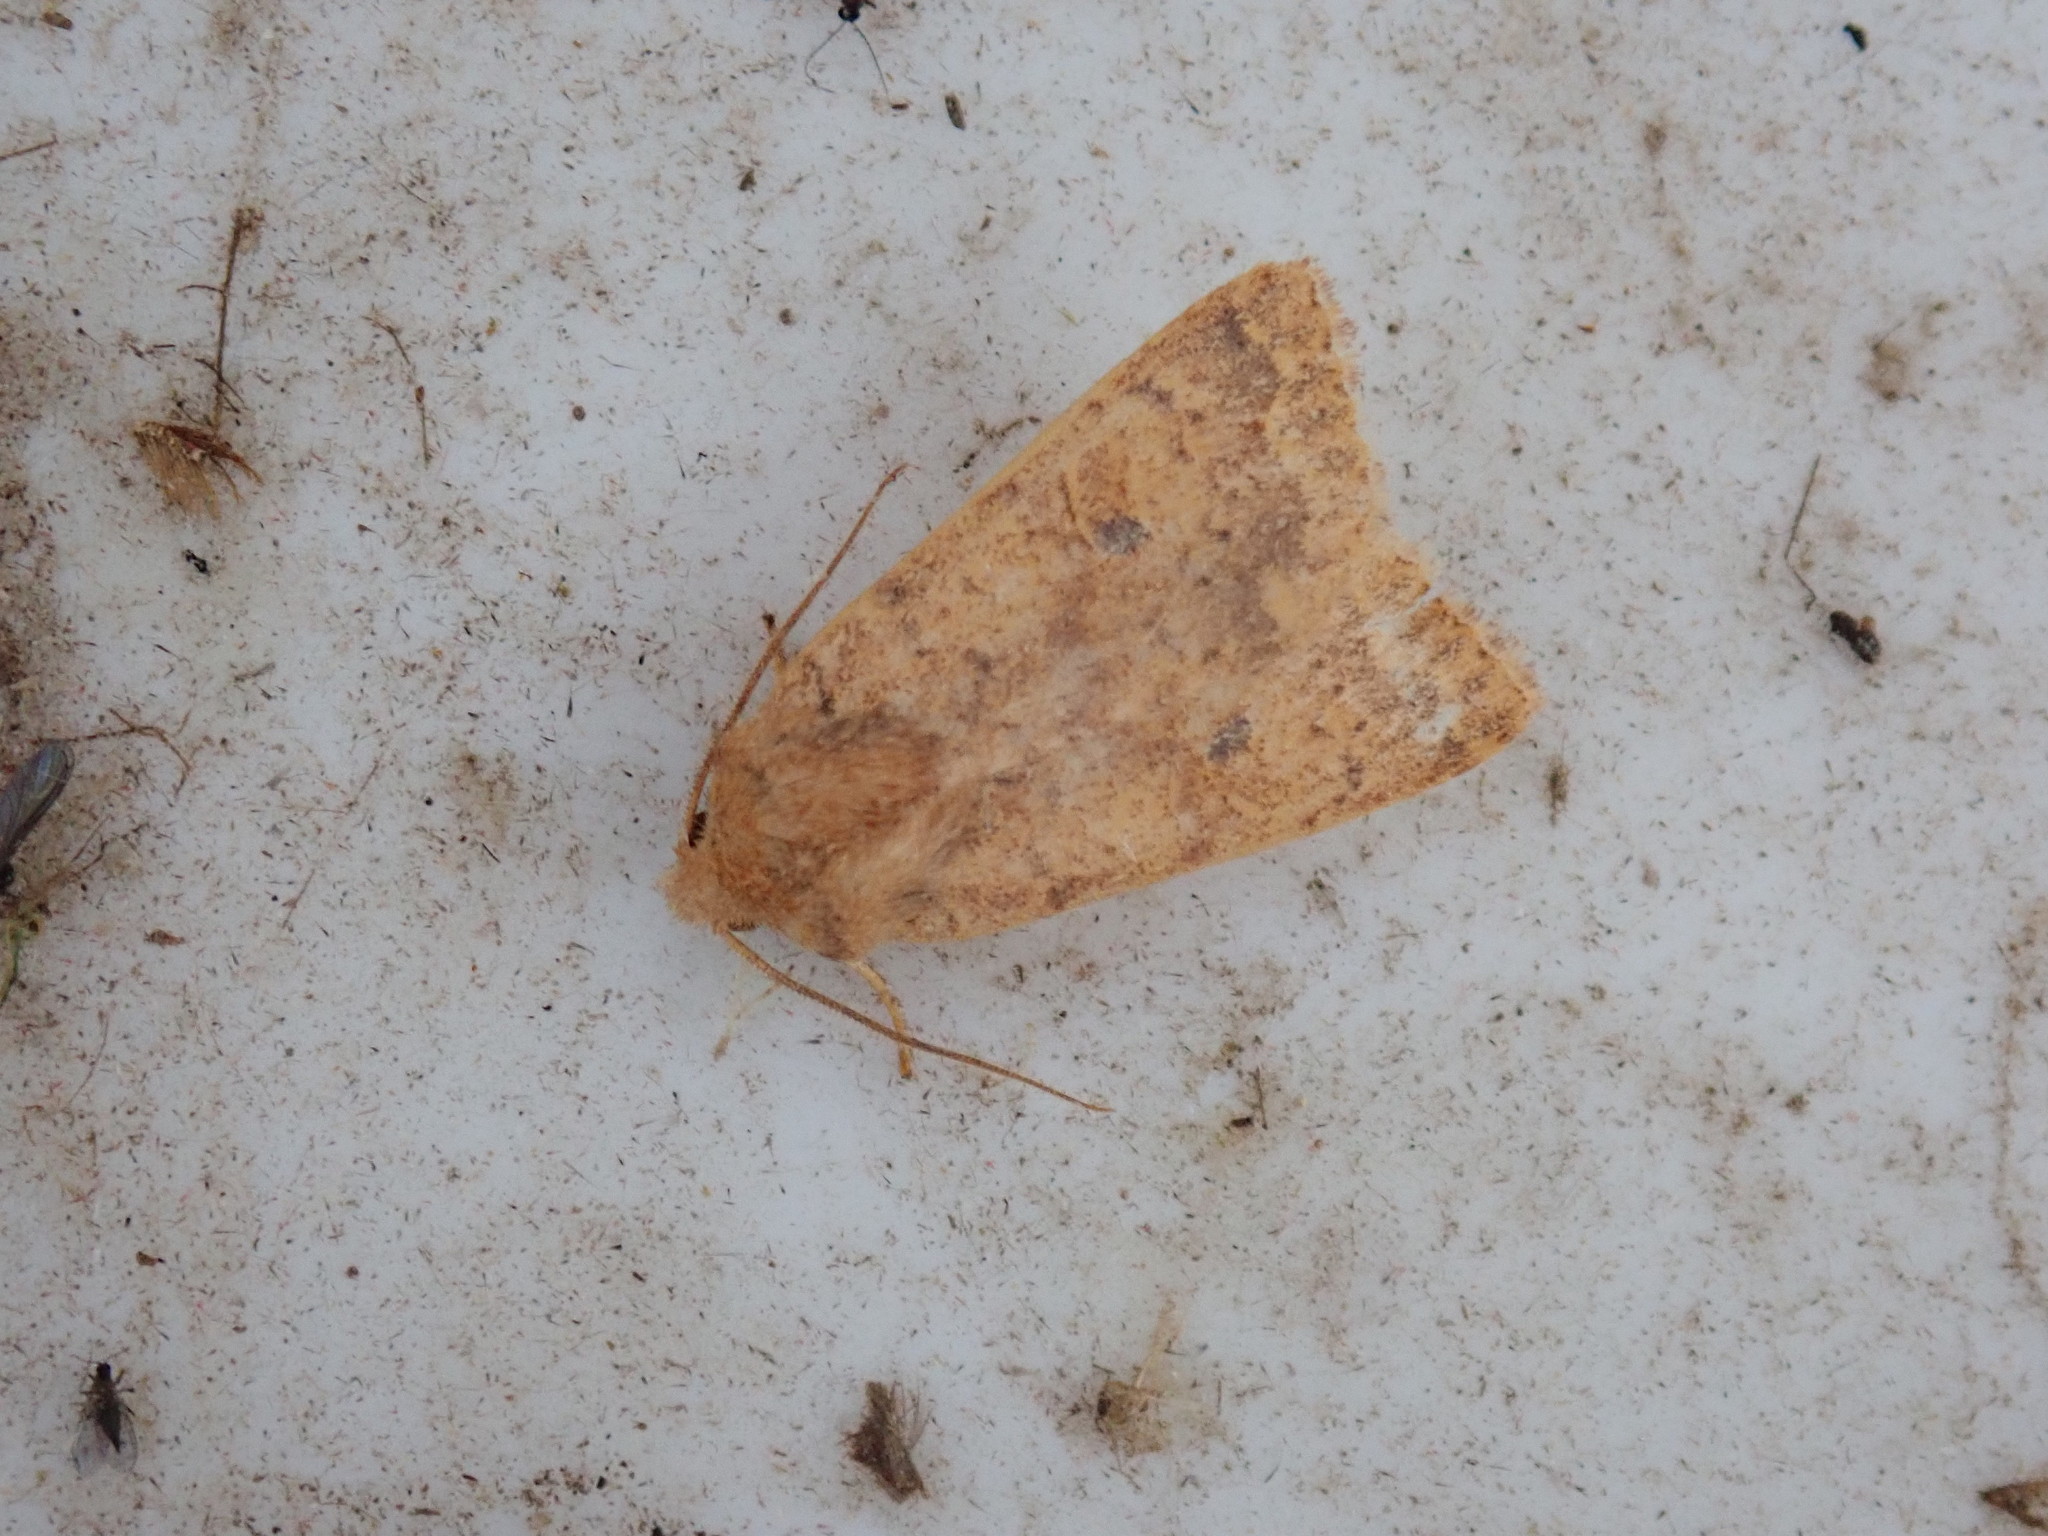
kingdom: Animalia
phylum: Arthropoda
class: Insecta
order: Lepidoptera
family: Noctuidae
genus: Agrochola
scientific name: Agrochola bicolorago
